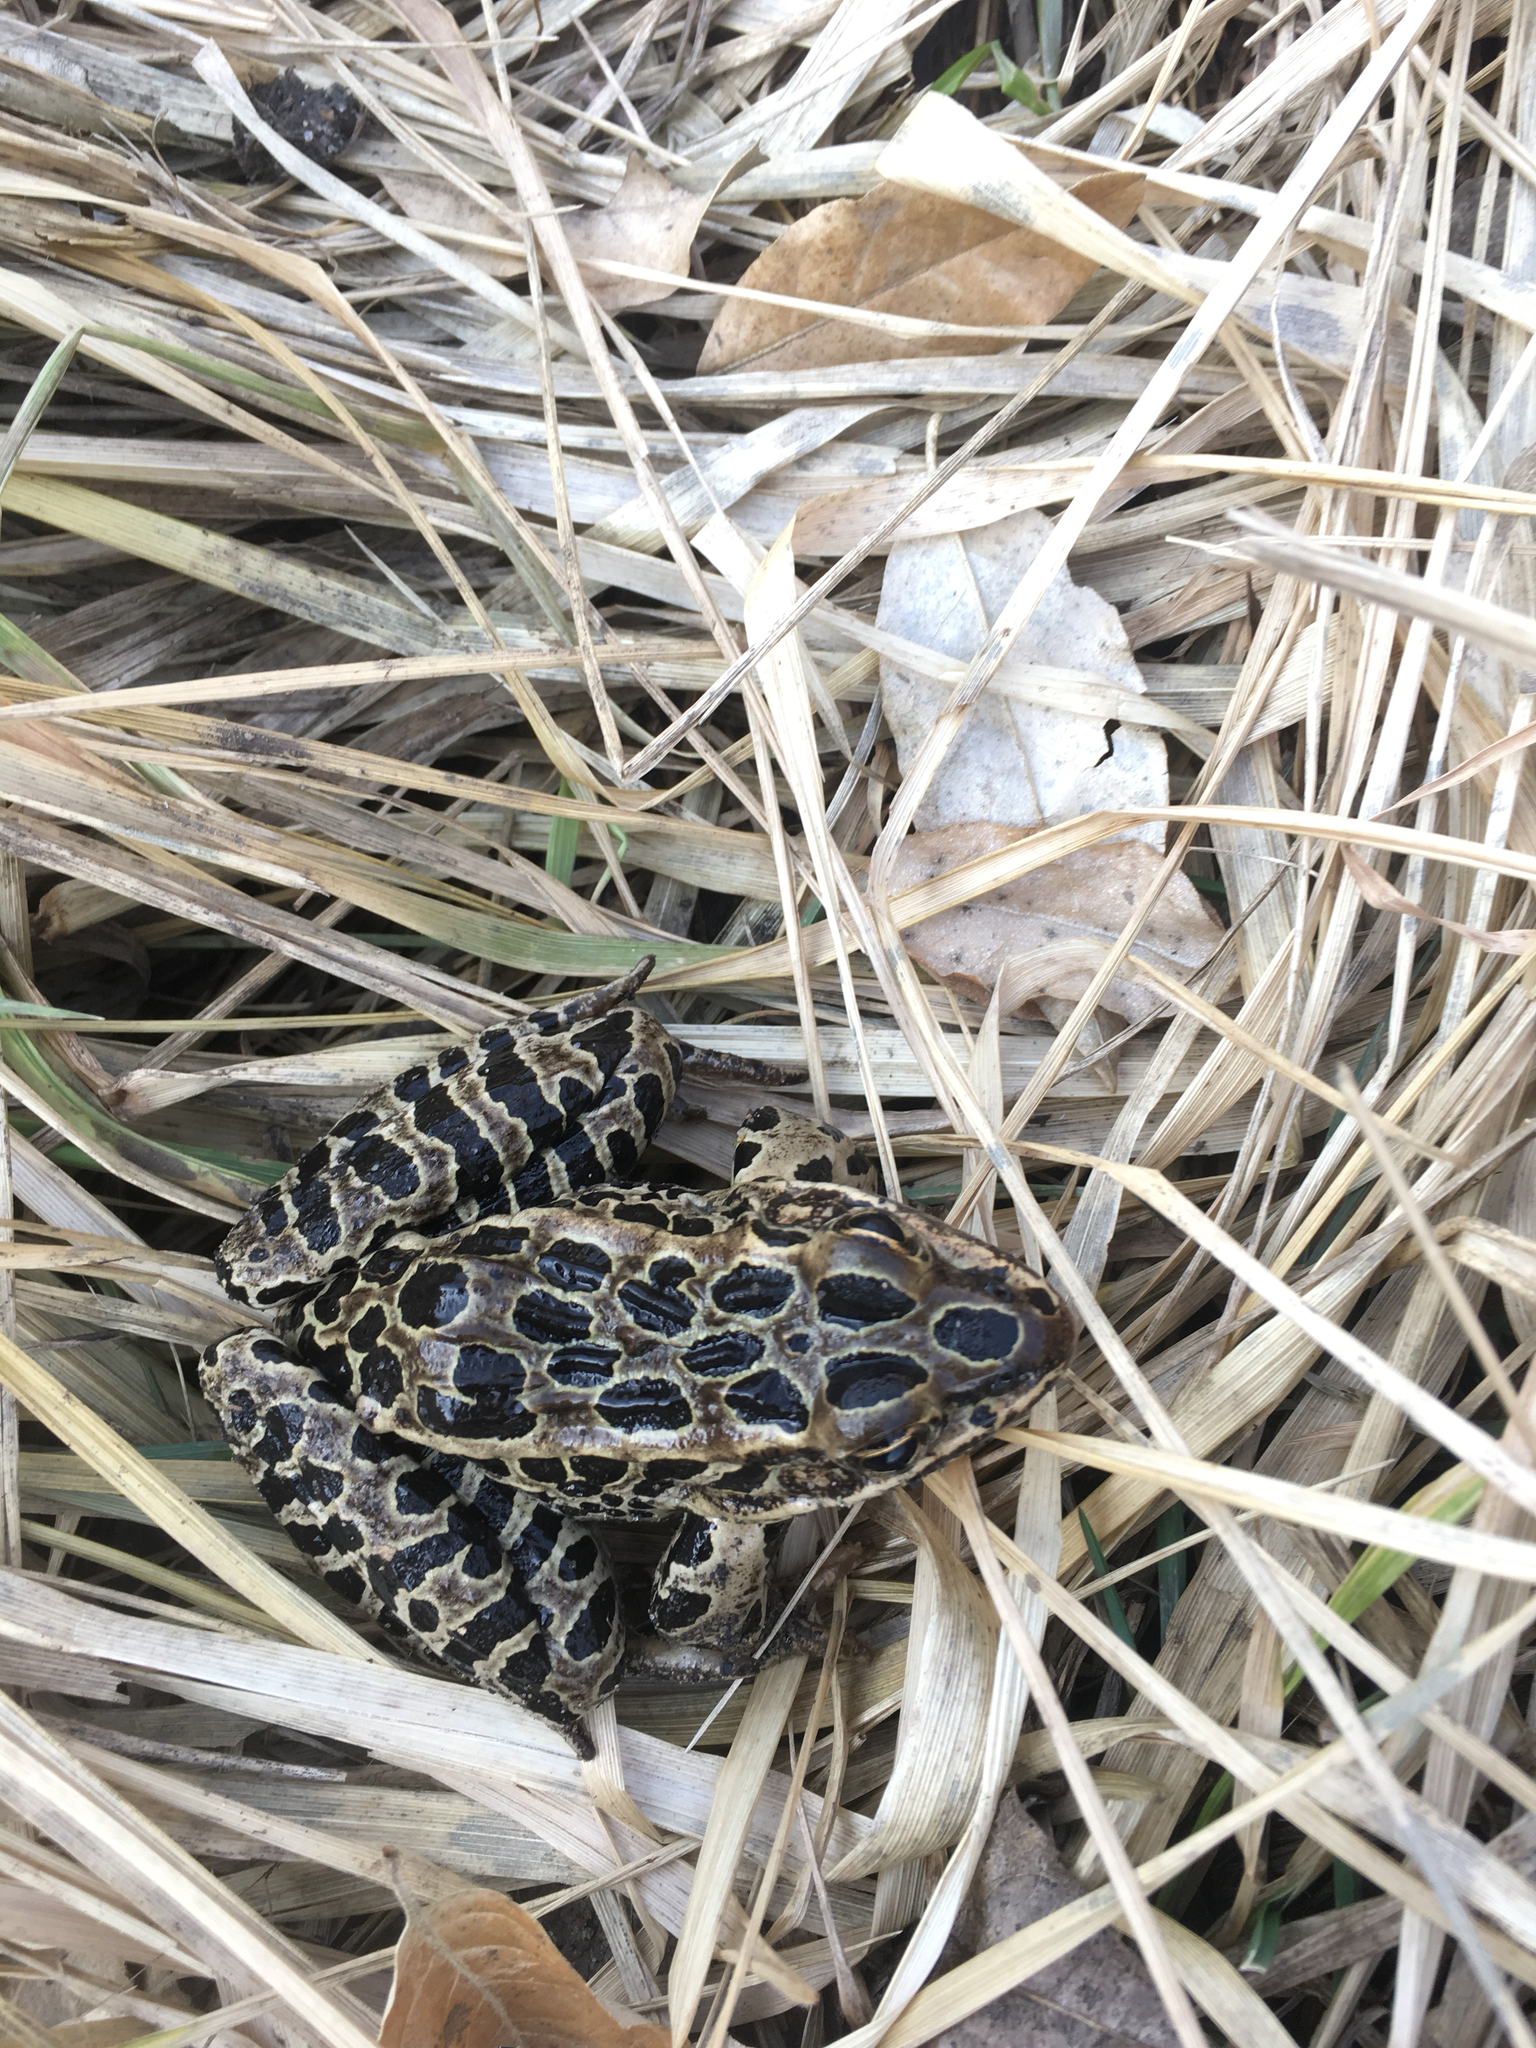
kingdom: Animalia
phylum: Chordata
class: Amphibia
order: Anura
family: Ranidae
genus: Lithobates
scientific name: Lithobates pipiens
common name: Northern leopard frog
